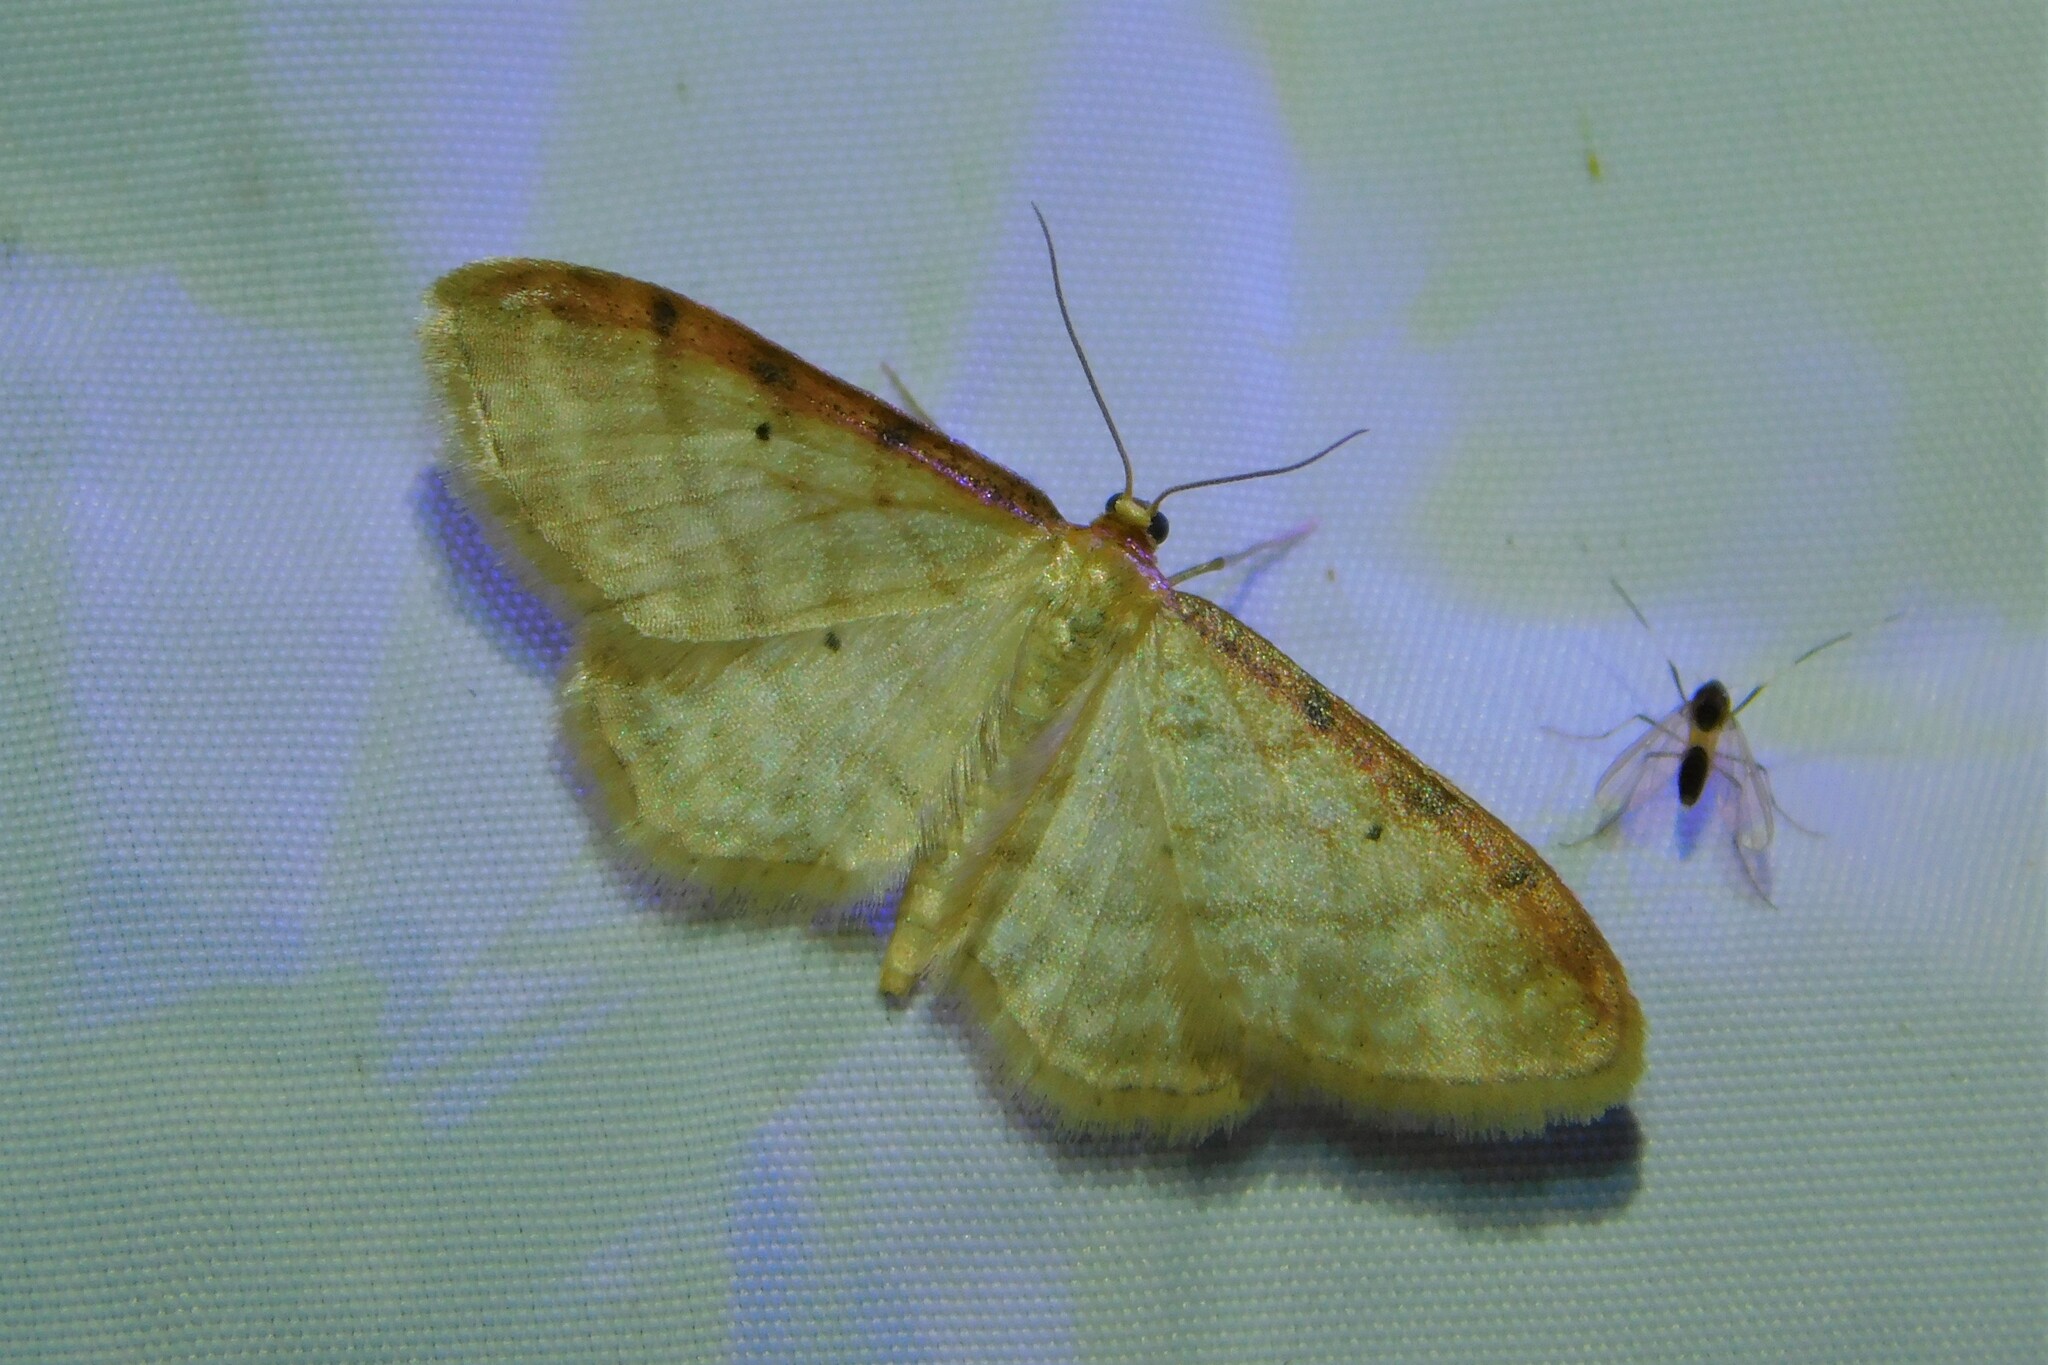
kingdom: Animalia
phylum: Arthropoda
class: Insecta
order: Lepidoptera
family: Geometridae
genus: Idaea
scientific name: Idaea humiliata
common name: Isle of wight wave
